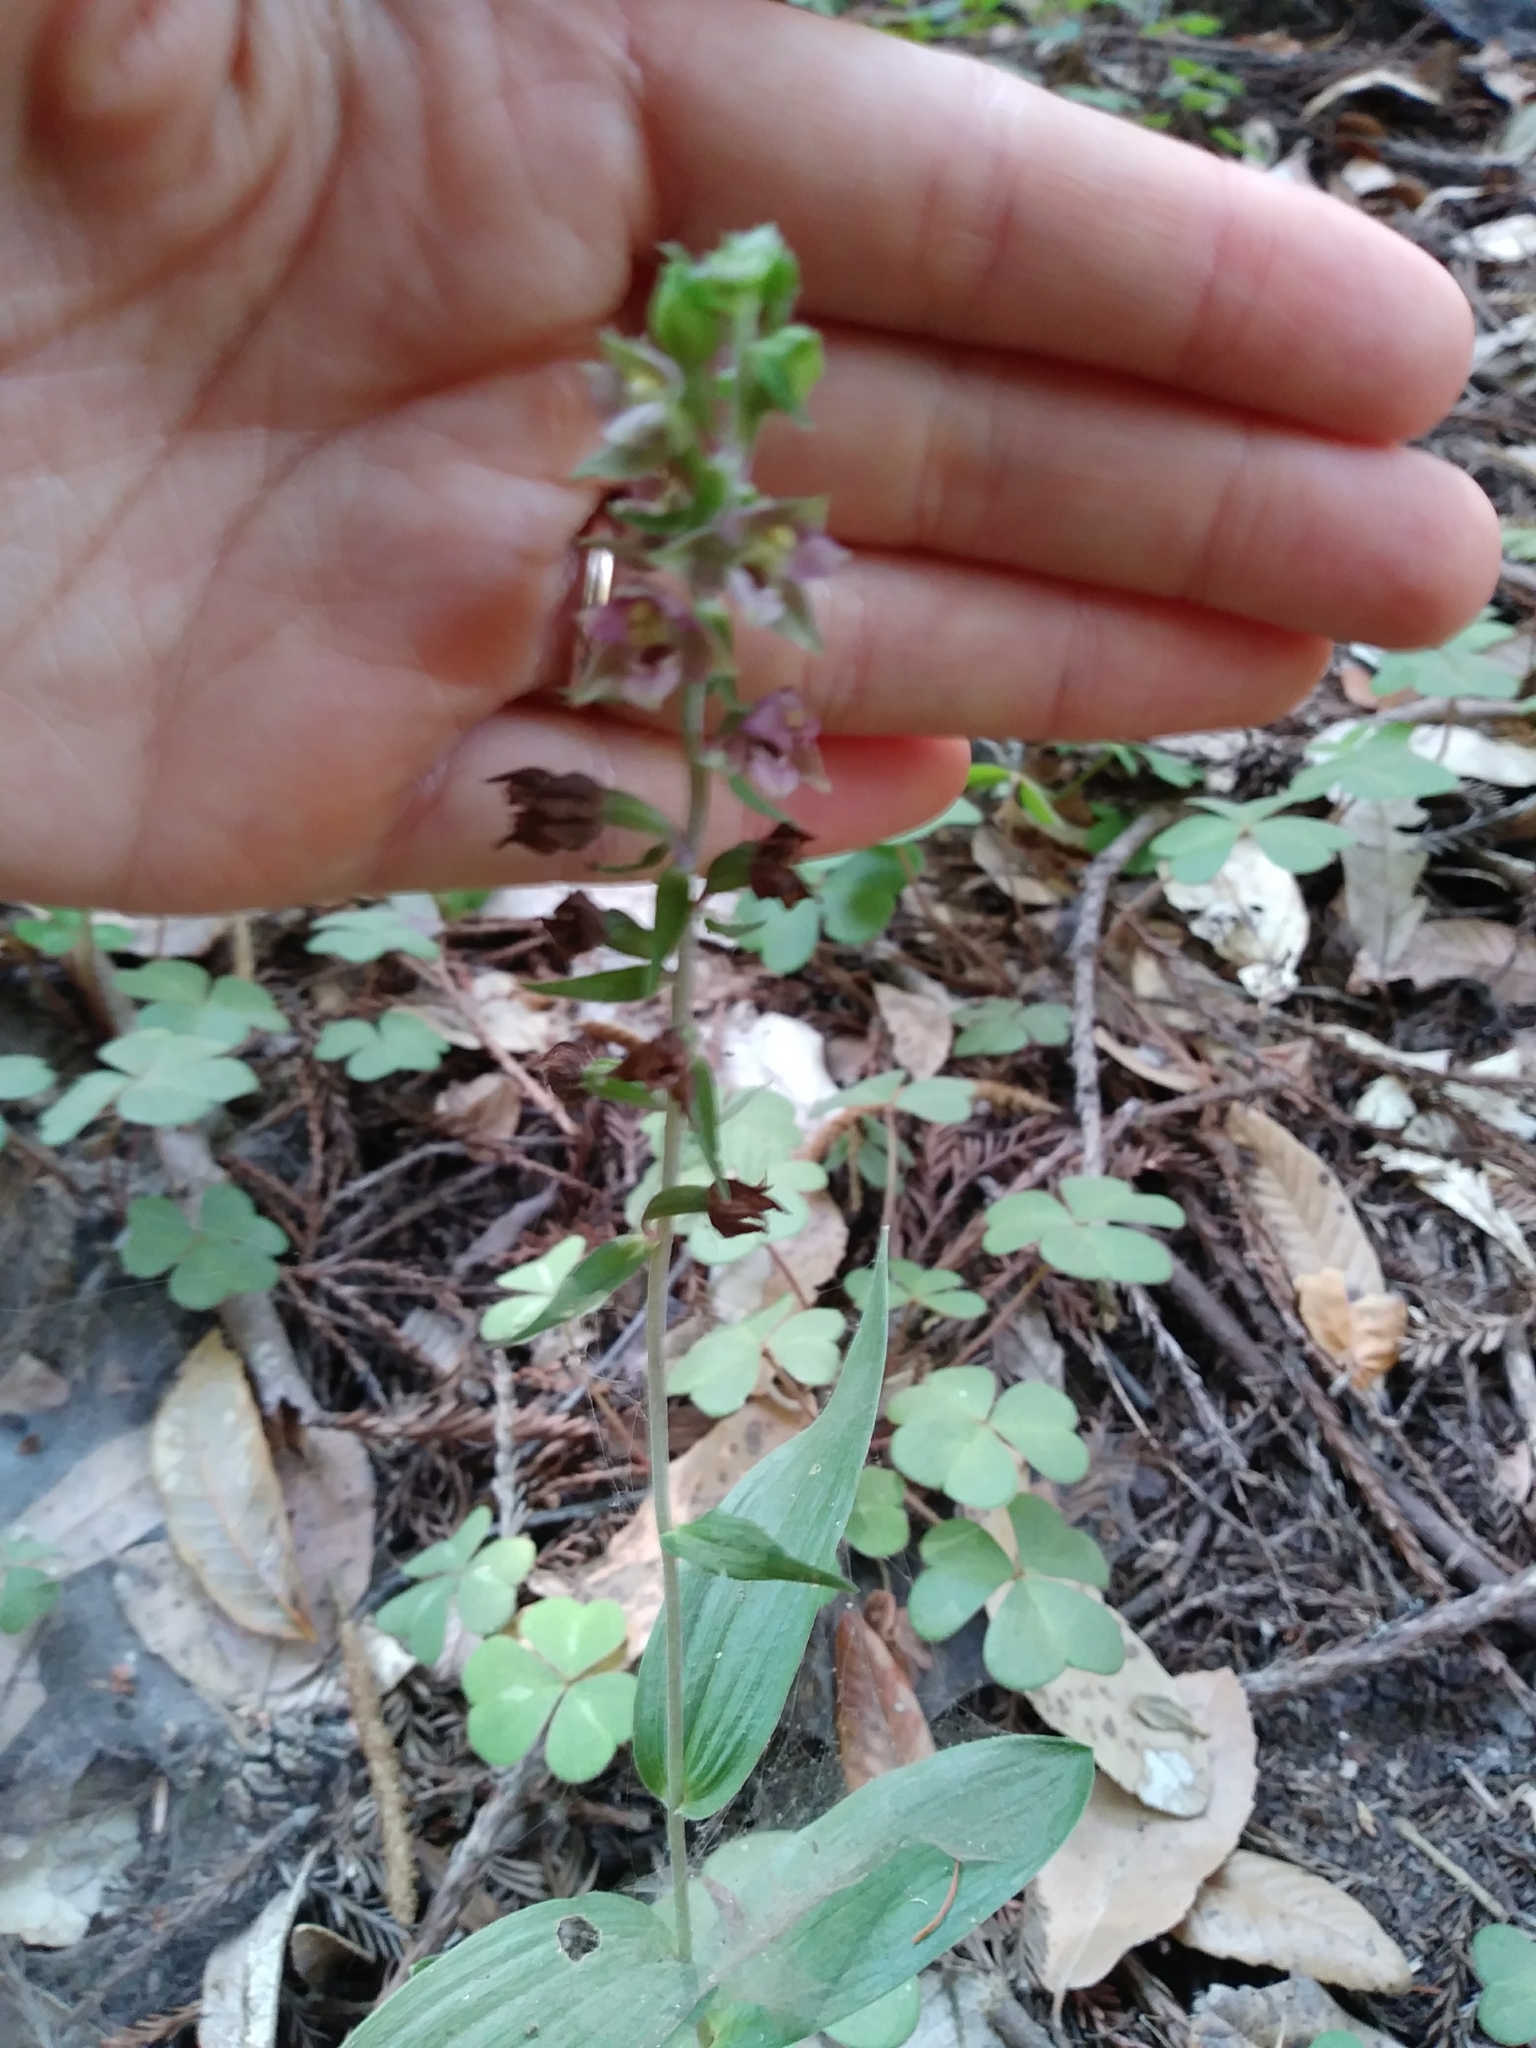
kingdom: Plantae
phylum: Tracheophyta
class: Liliopsida
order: Asparagales
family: Orchidaceae
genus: Epipactis
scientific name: Epipactis helleborine
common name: Broad-leaved helleborine
